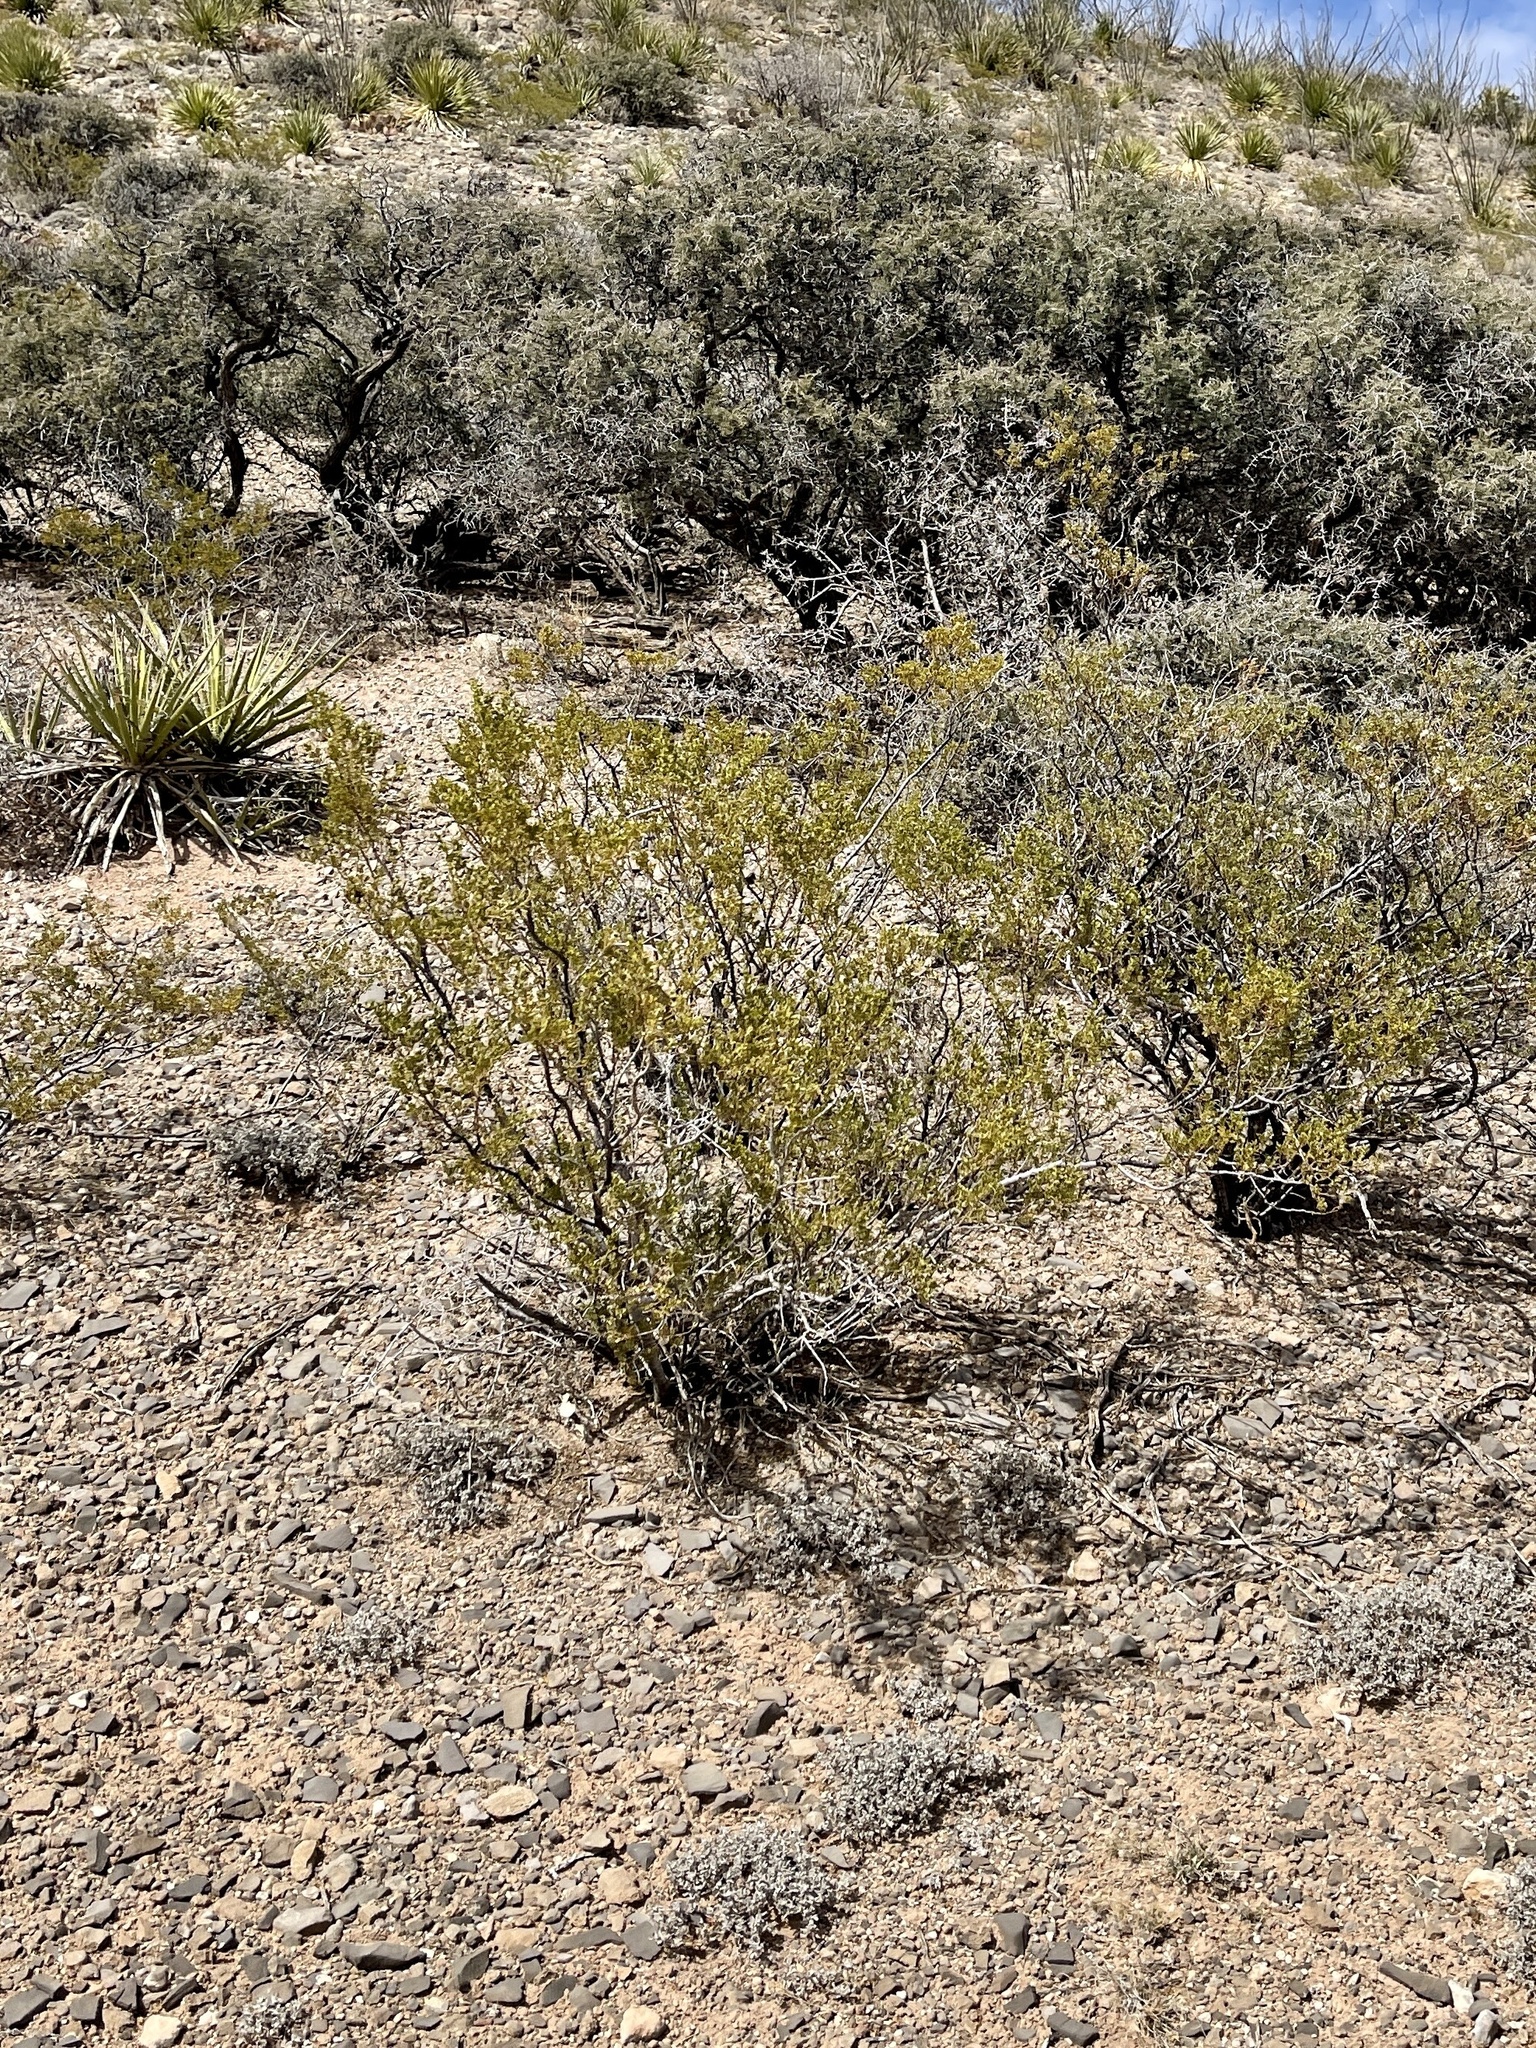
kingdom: Plantae
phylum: Tracheophyta
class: Magnoliopsida
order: Zygophyllales
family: Zygophyllaceae
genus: Larrea
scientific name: Larrea tridentata
